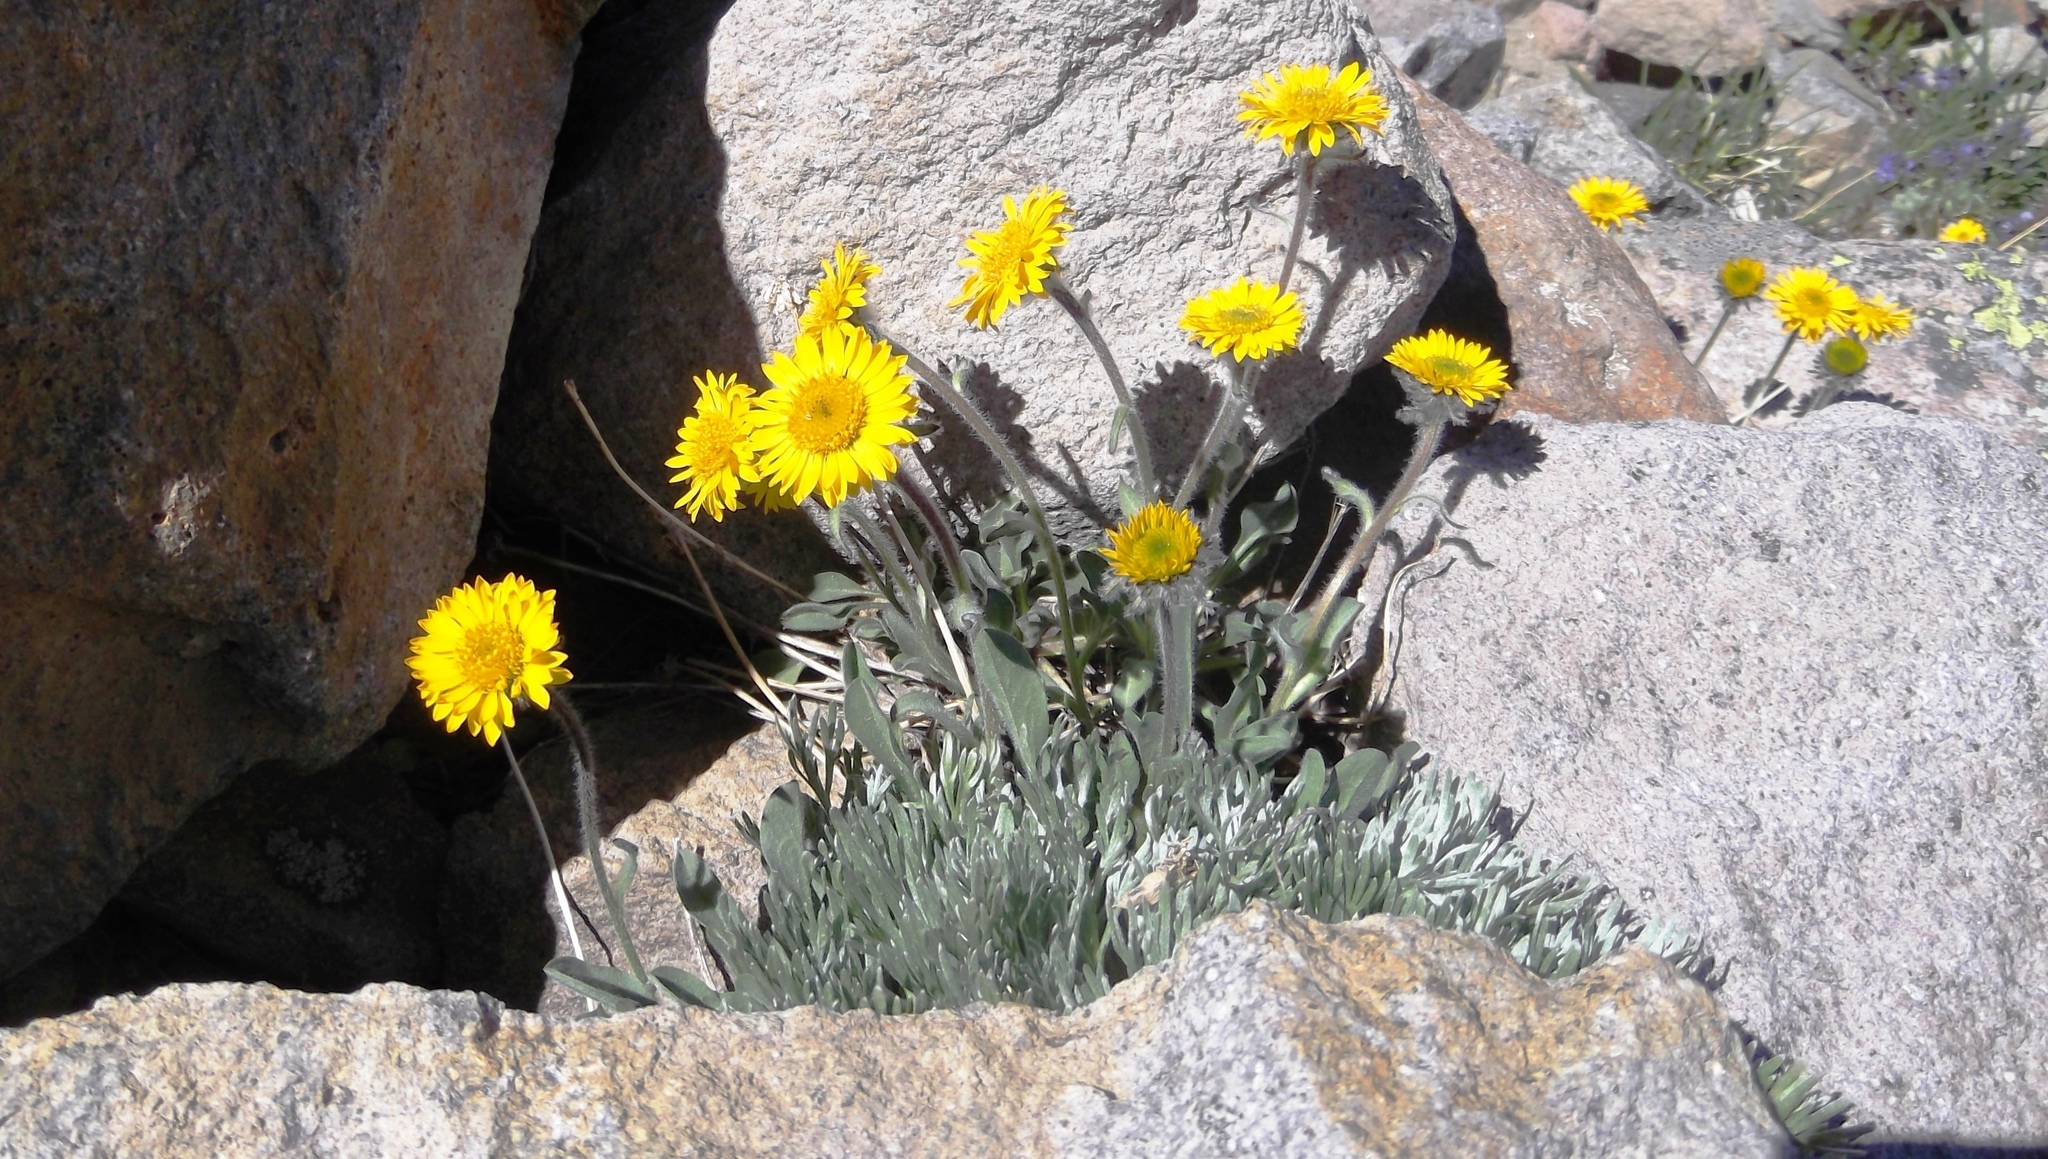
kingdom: Plantae
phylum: Tracheophyta
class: Magnoliopsida
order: Asterales
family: Asteraceae
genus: Erigeron
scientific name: Erigeron aureus
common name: Alpine yellow fleabane
